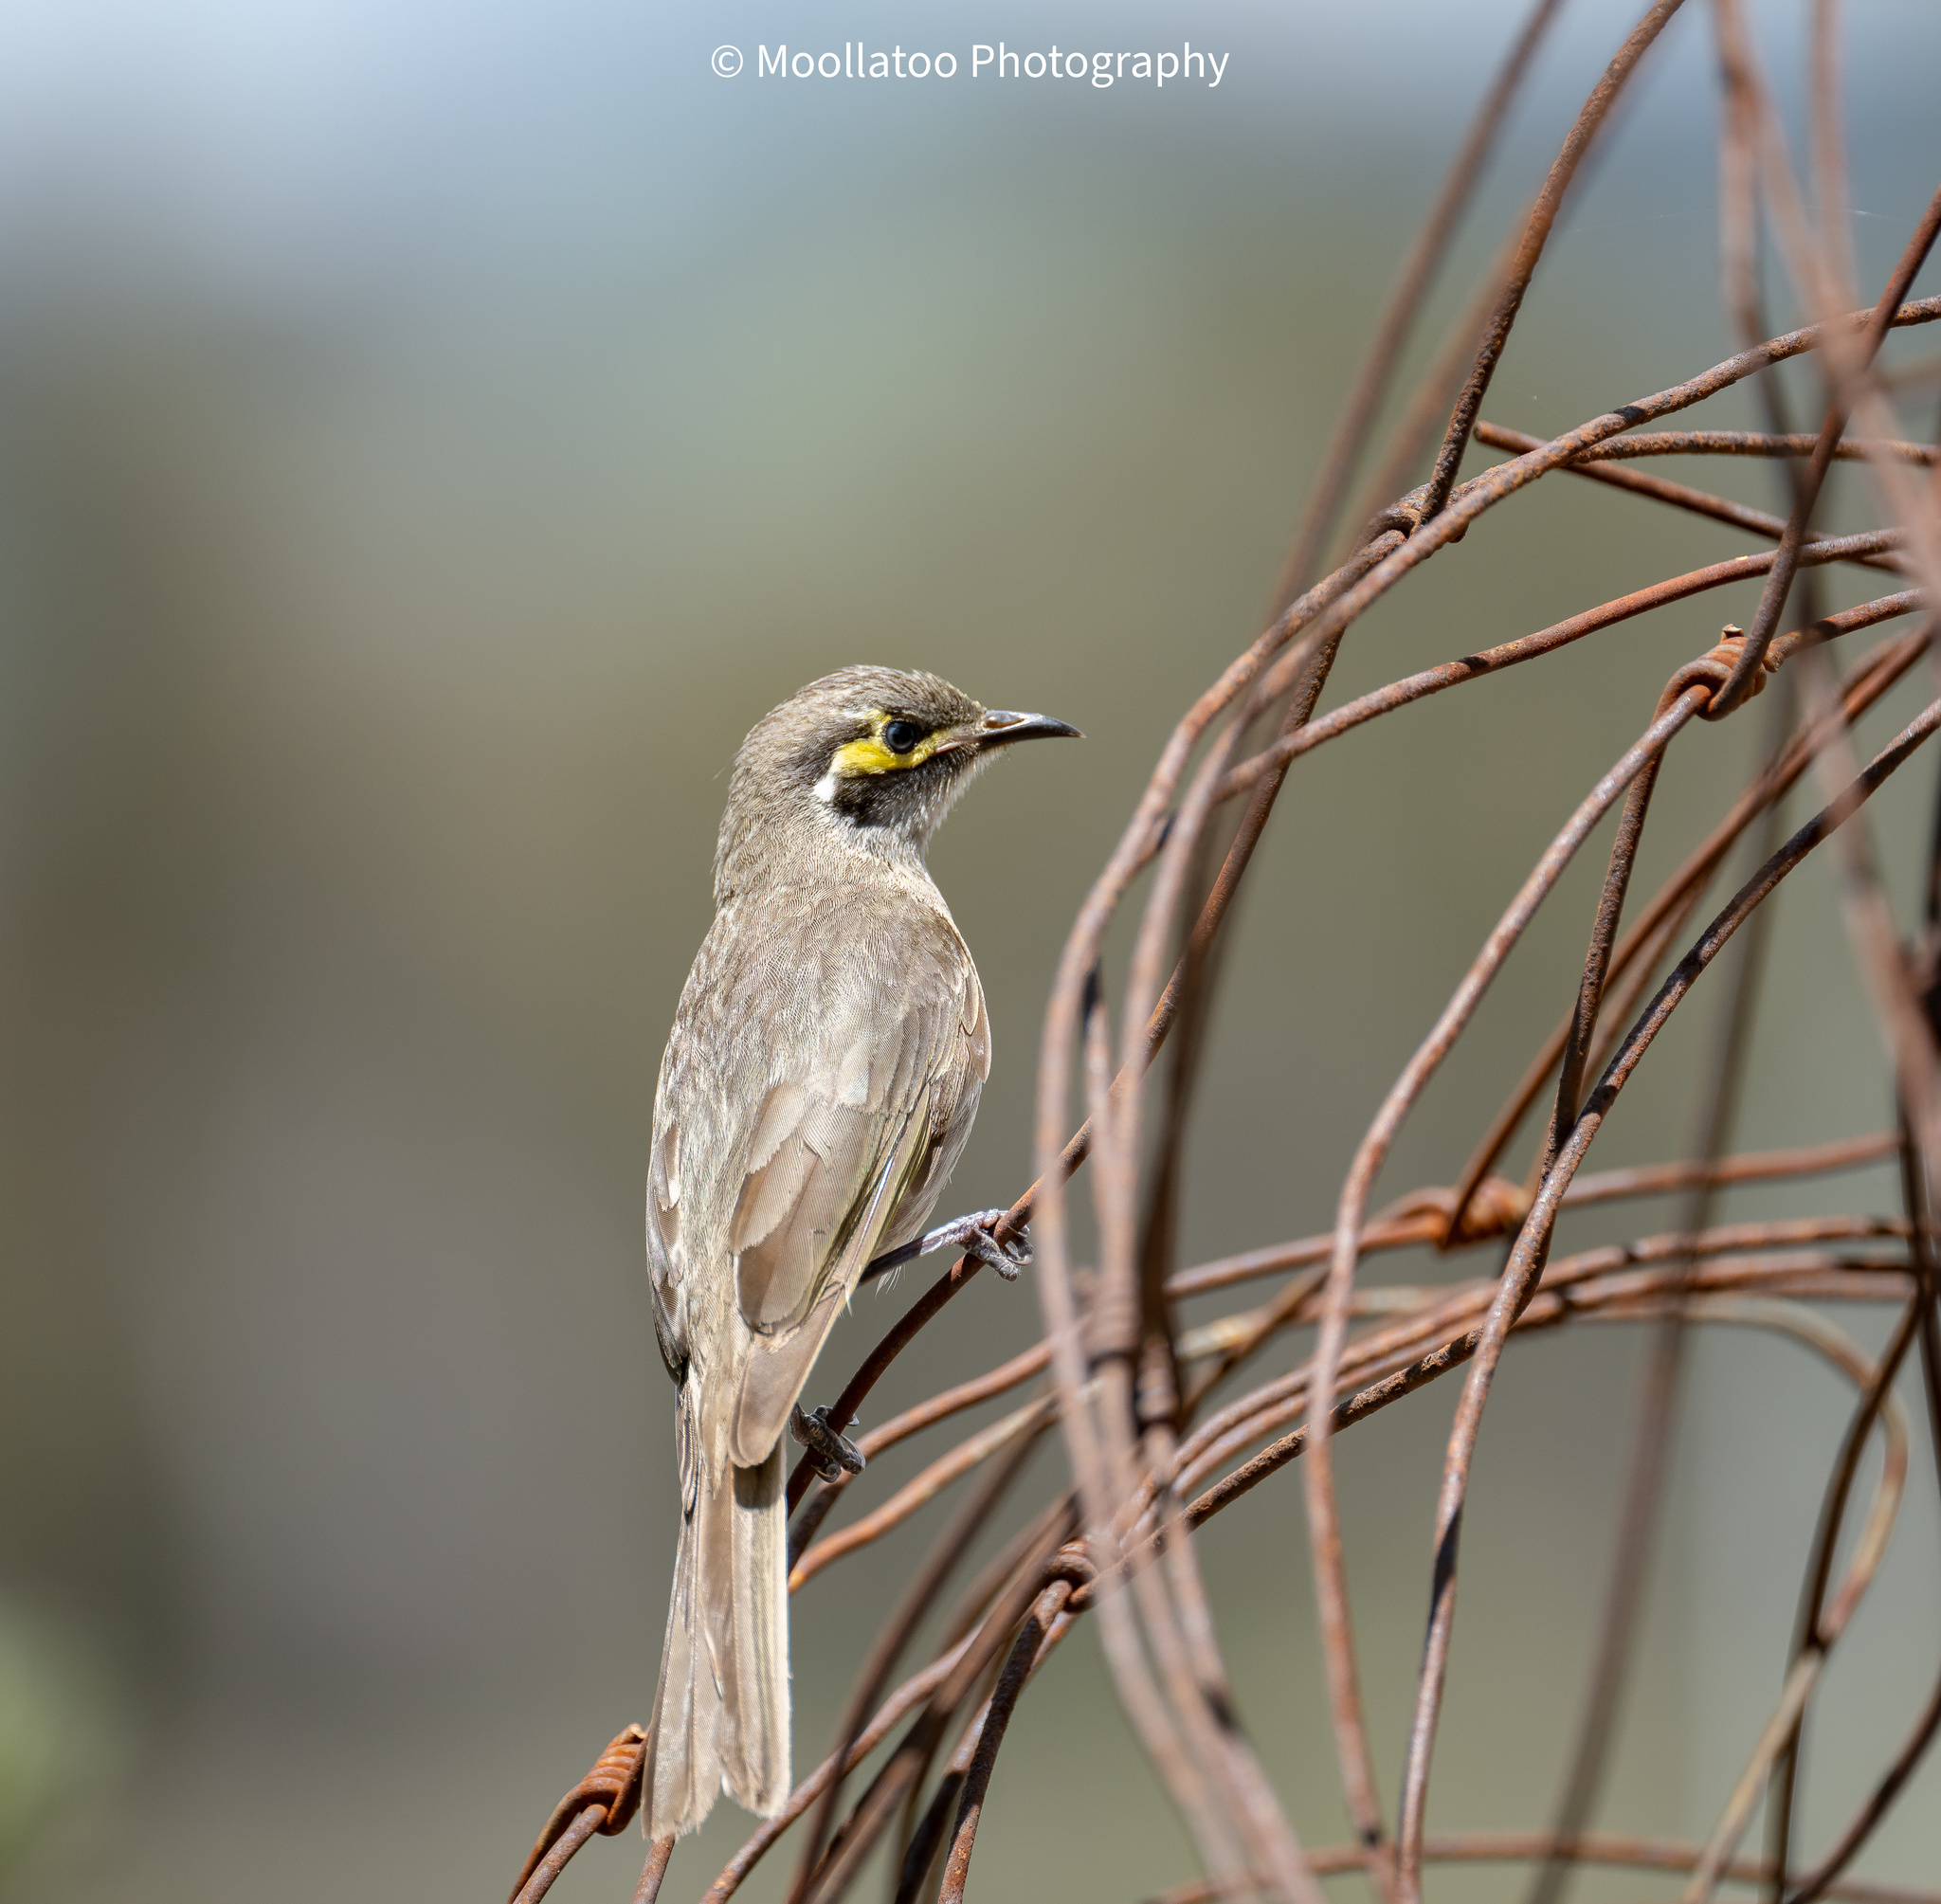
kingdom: Animalia
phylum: Chordata
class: Aves
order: Passeriformes
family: Meliphagidae
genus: Caligavis
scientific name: Caligavis chrysops
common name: Yellow-faced honeyeater
